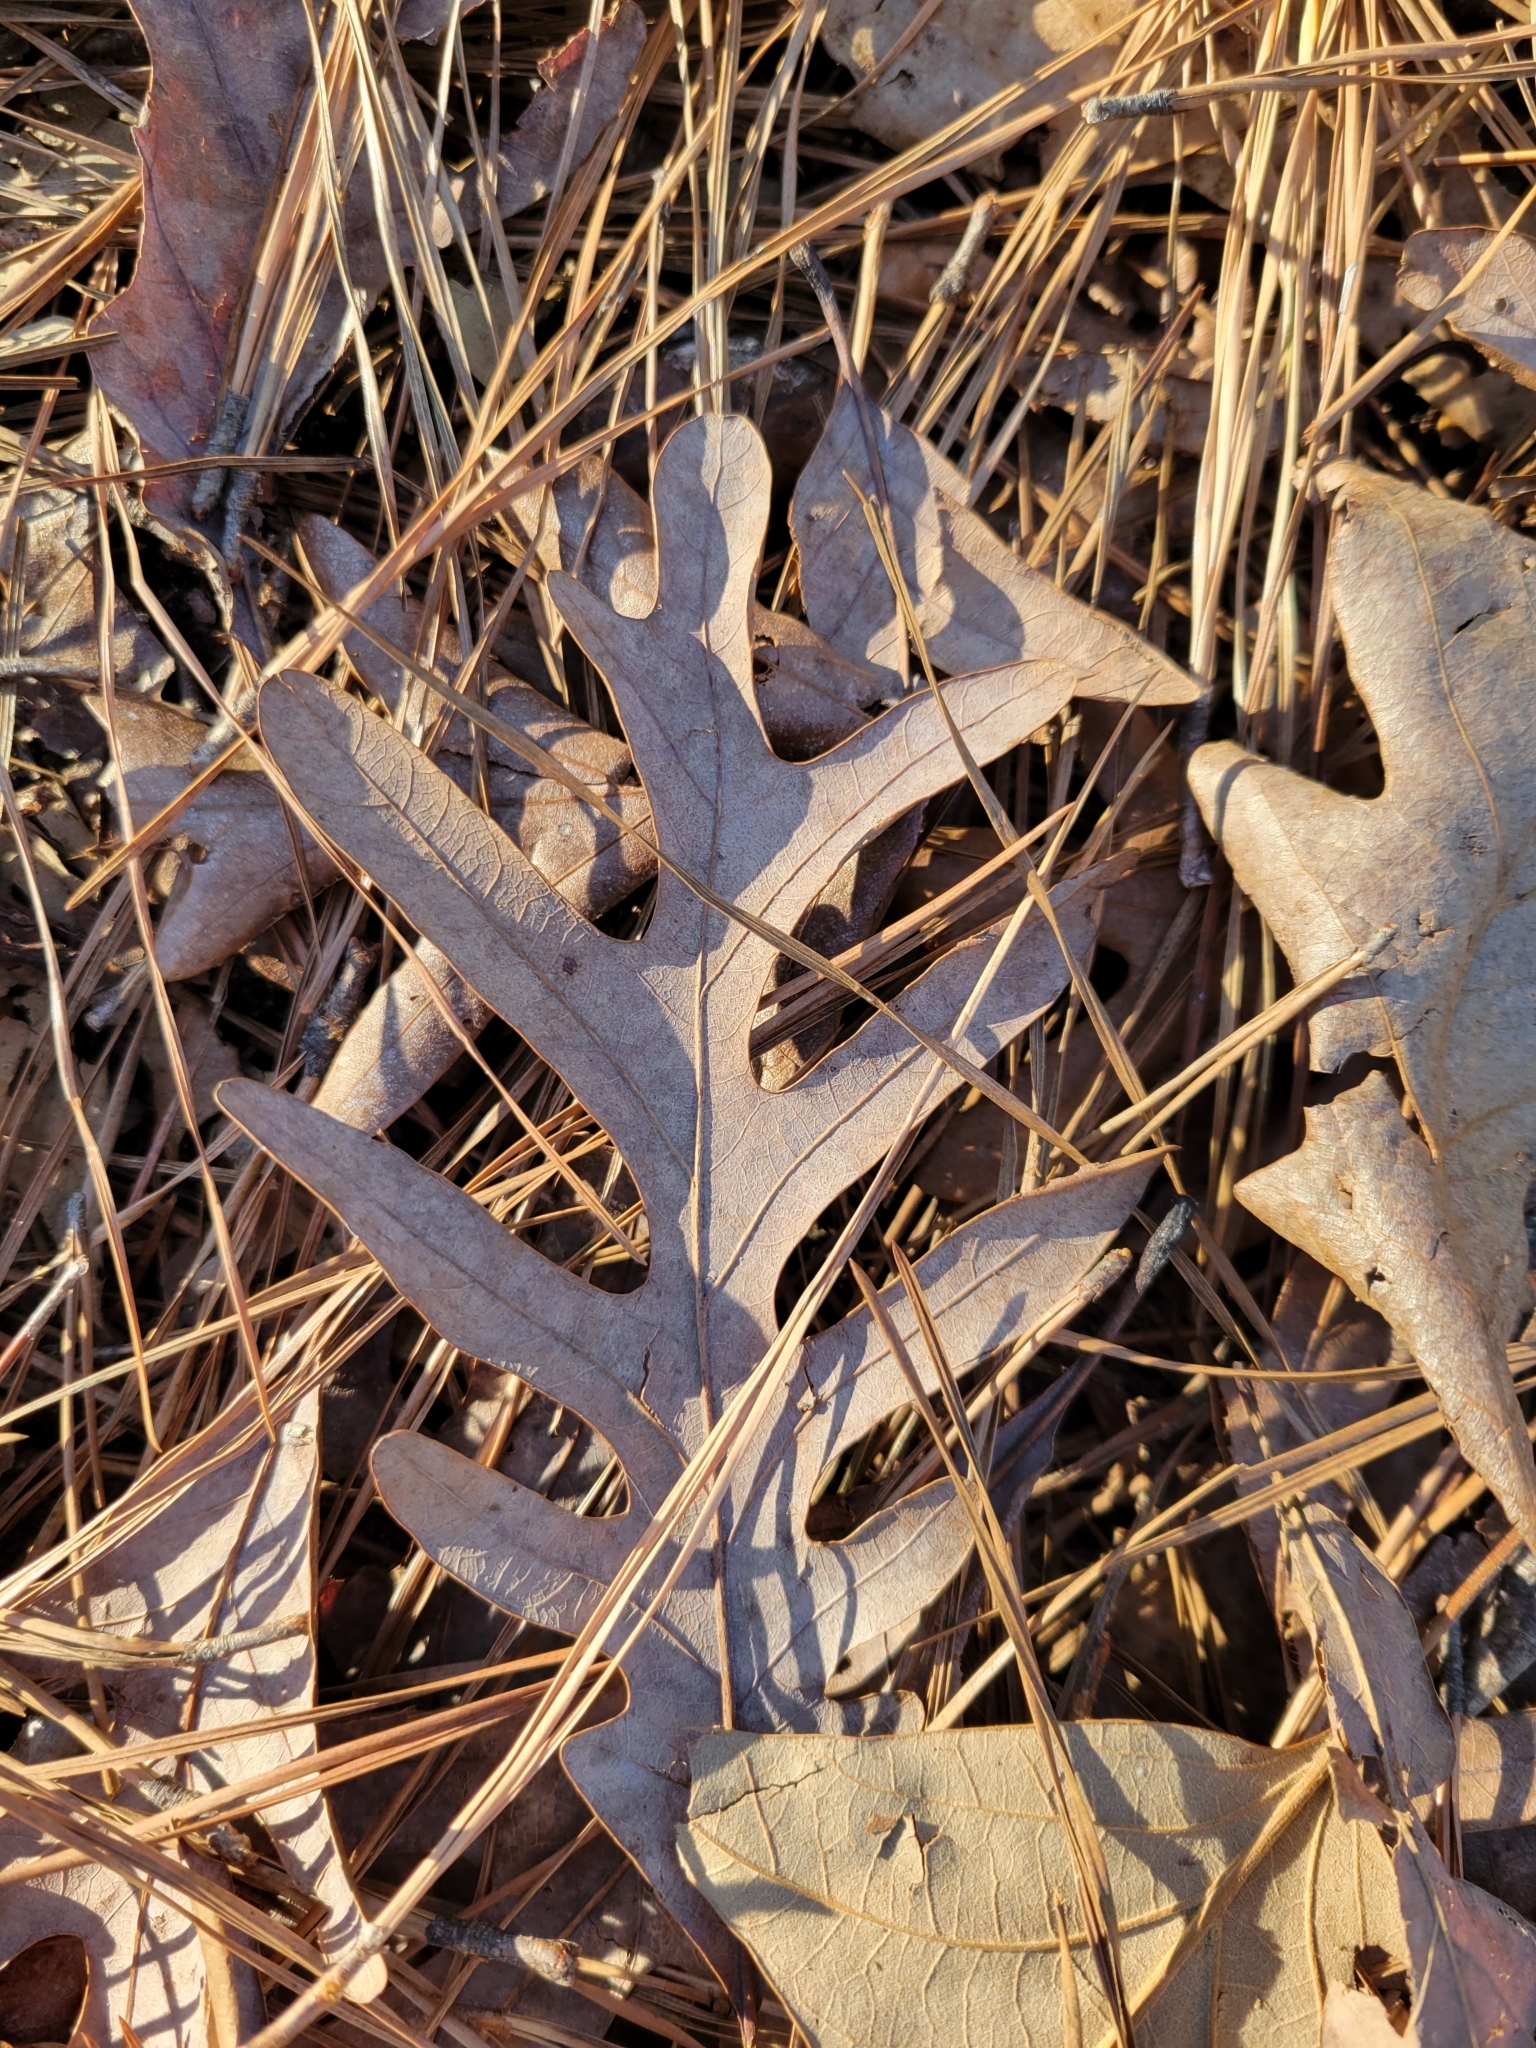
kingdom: Plantae
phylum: Tracheophyta
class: Magnoliopsida
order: Fagales
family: Fagaceae
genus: Quercus
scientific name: Quercus alba
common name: White oak
